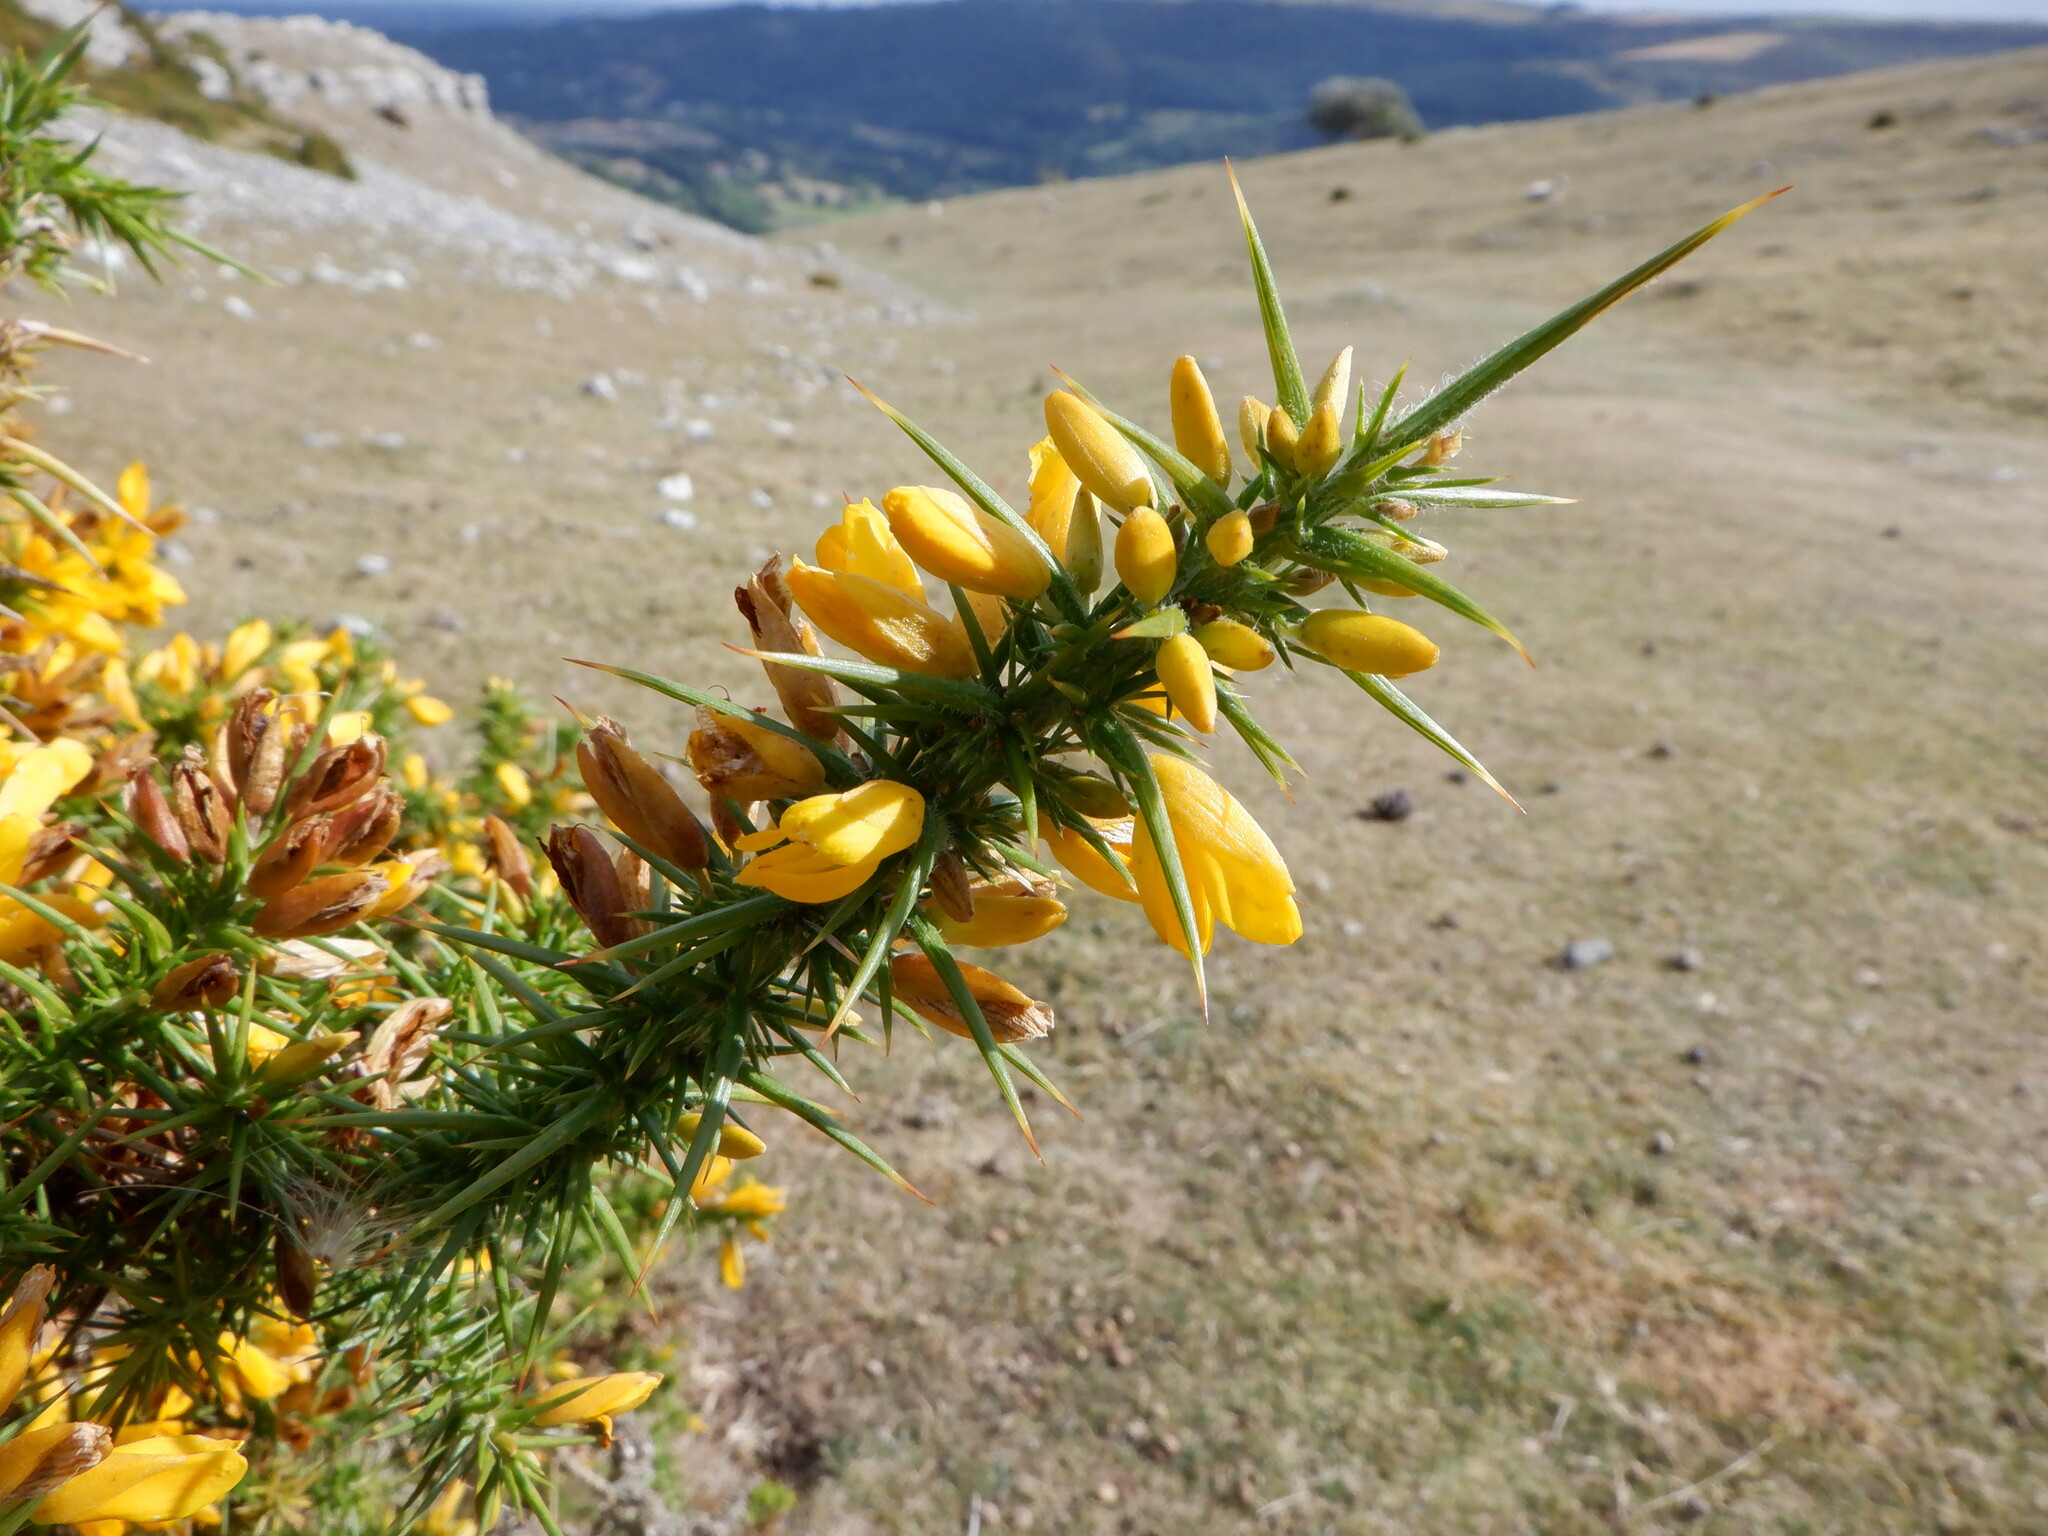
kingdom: Plantae
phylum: Tracheophyta
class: Magnoliopsida
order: Fabales
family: Fabaceae
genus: Ulex
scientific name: Ulex europaeus
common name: Common gorse
